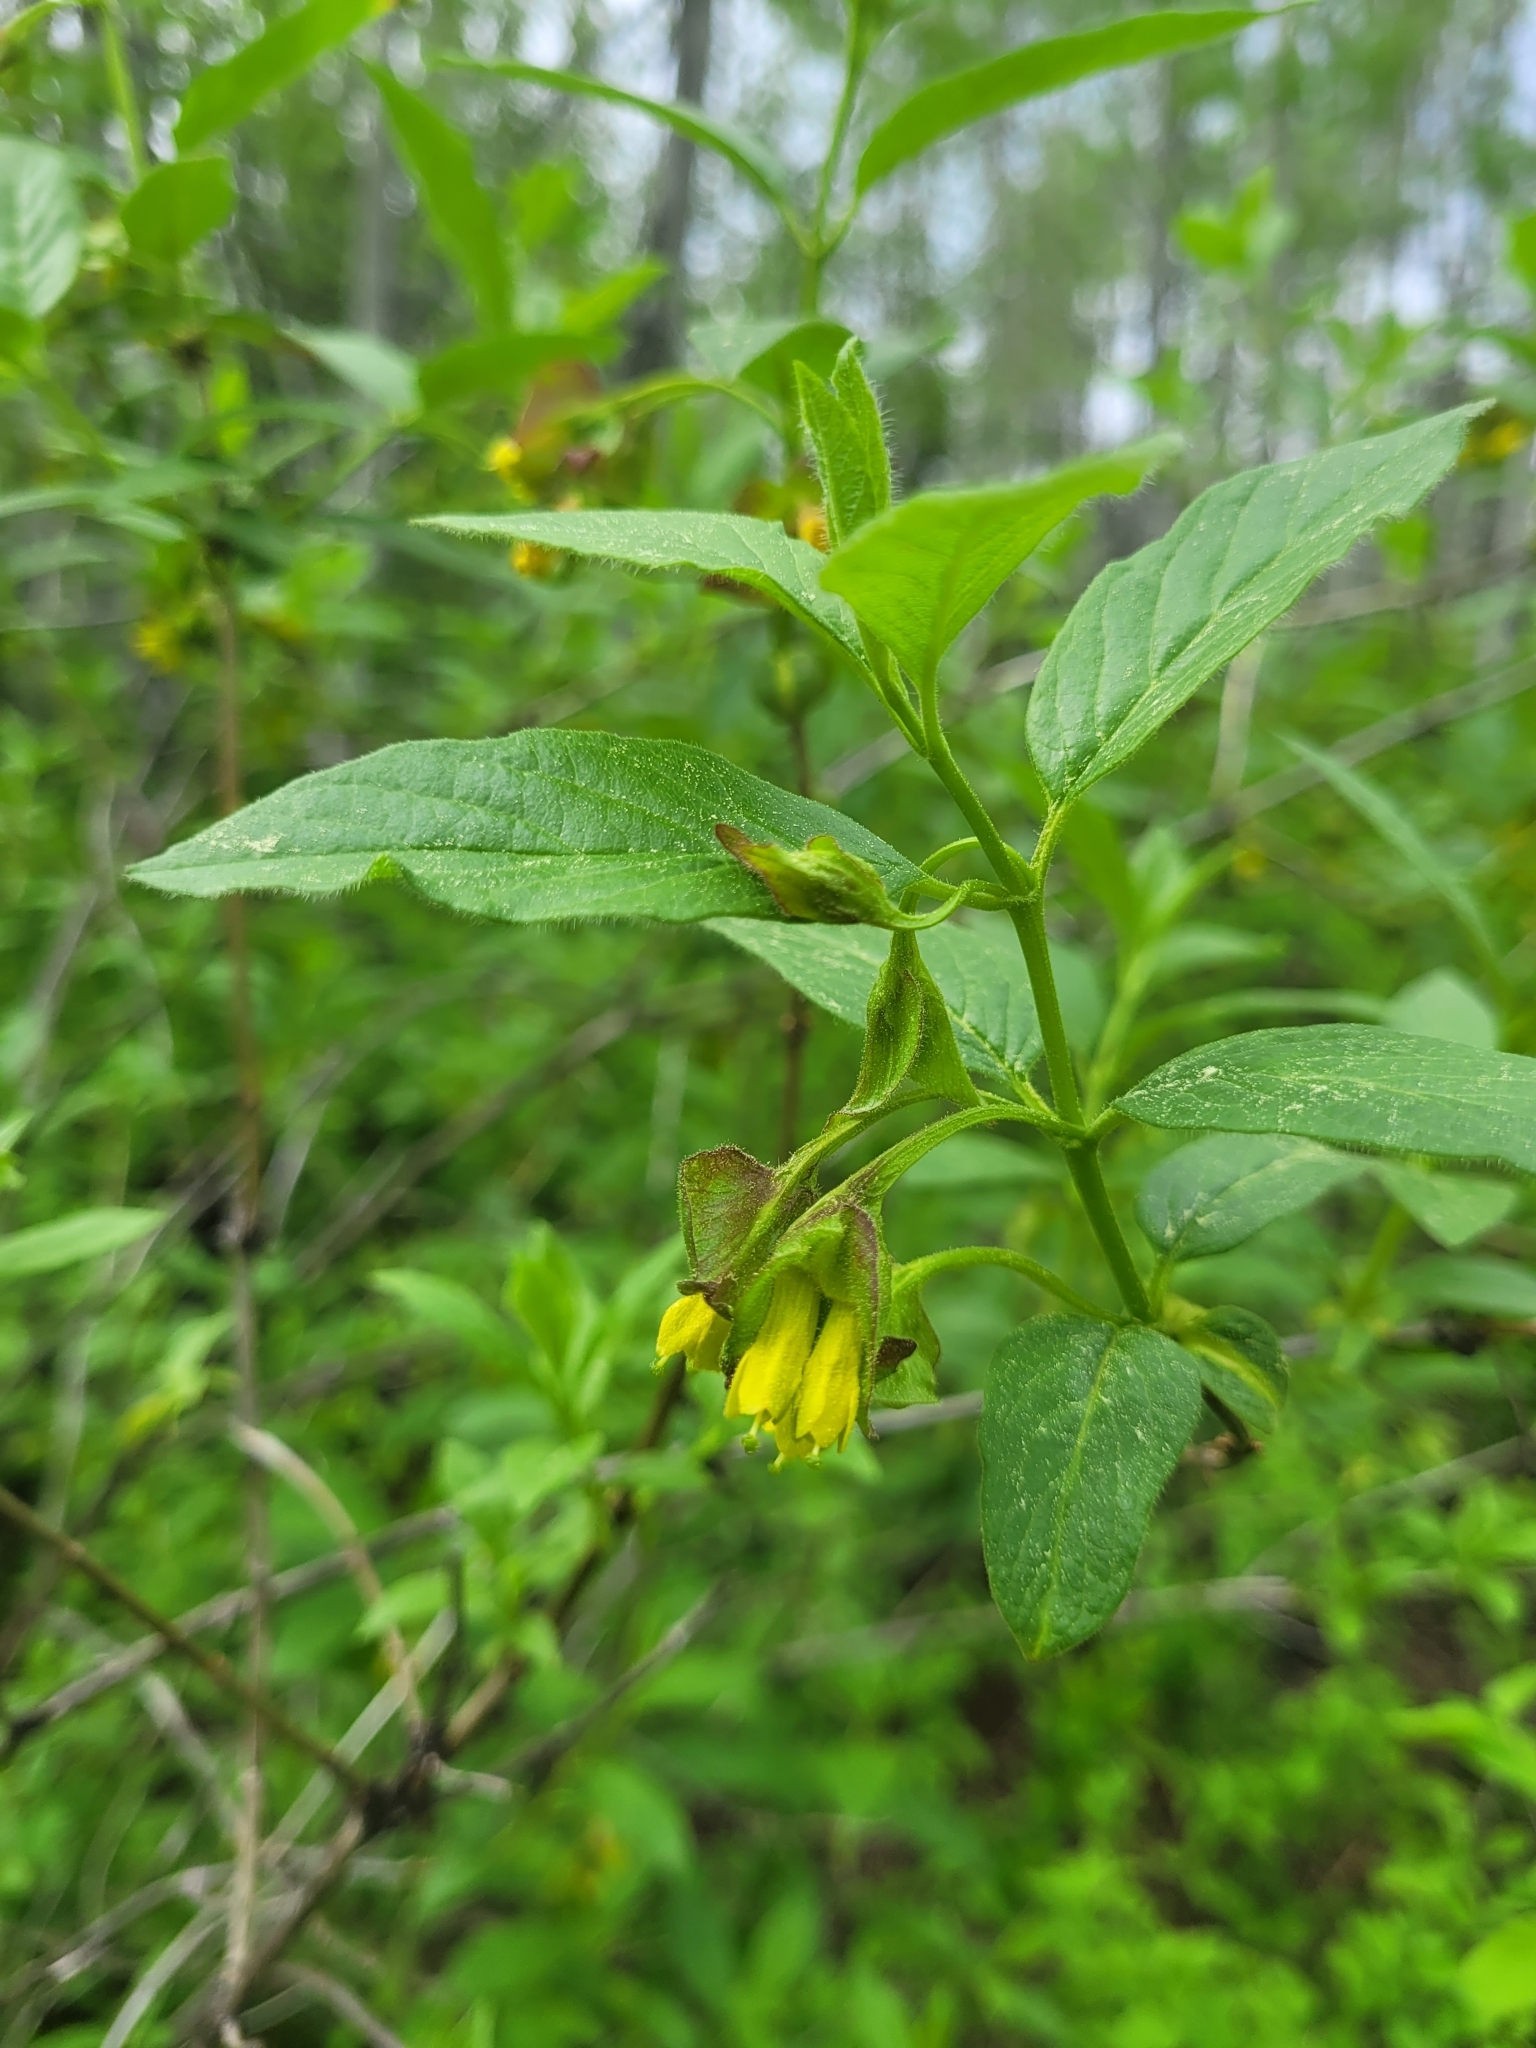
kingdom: Plantae
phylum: Tracheophyta
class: Magnoliopsida
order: Dipsacales
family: Caprifoliaceae
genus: Lonicera
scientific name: Lonicera involucrata
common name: Californian honeysuckle
